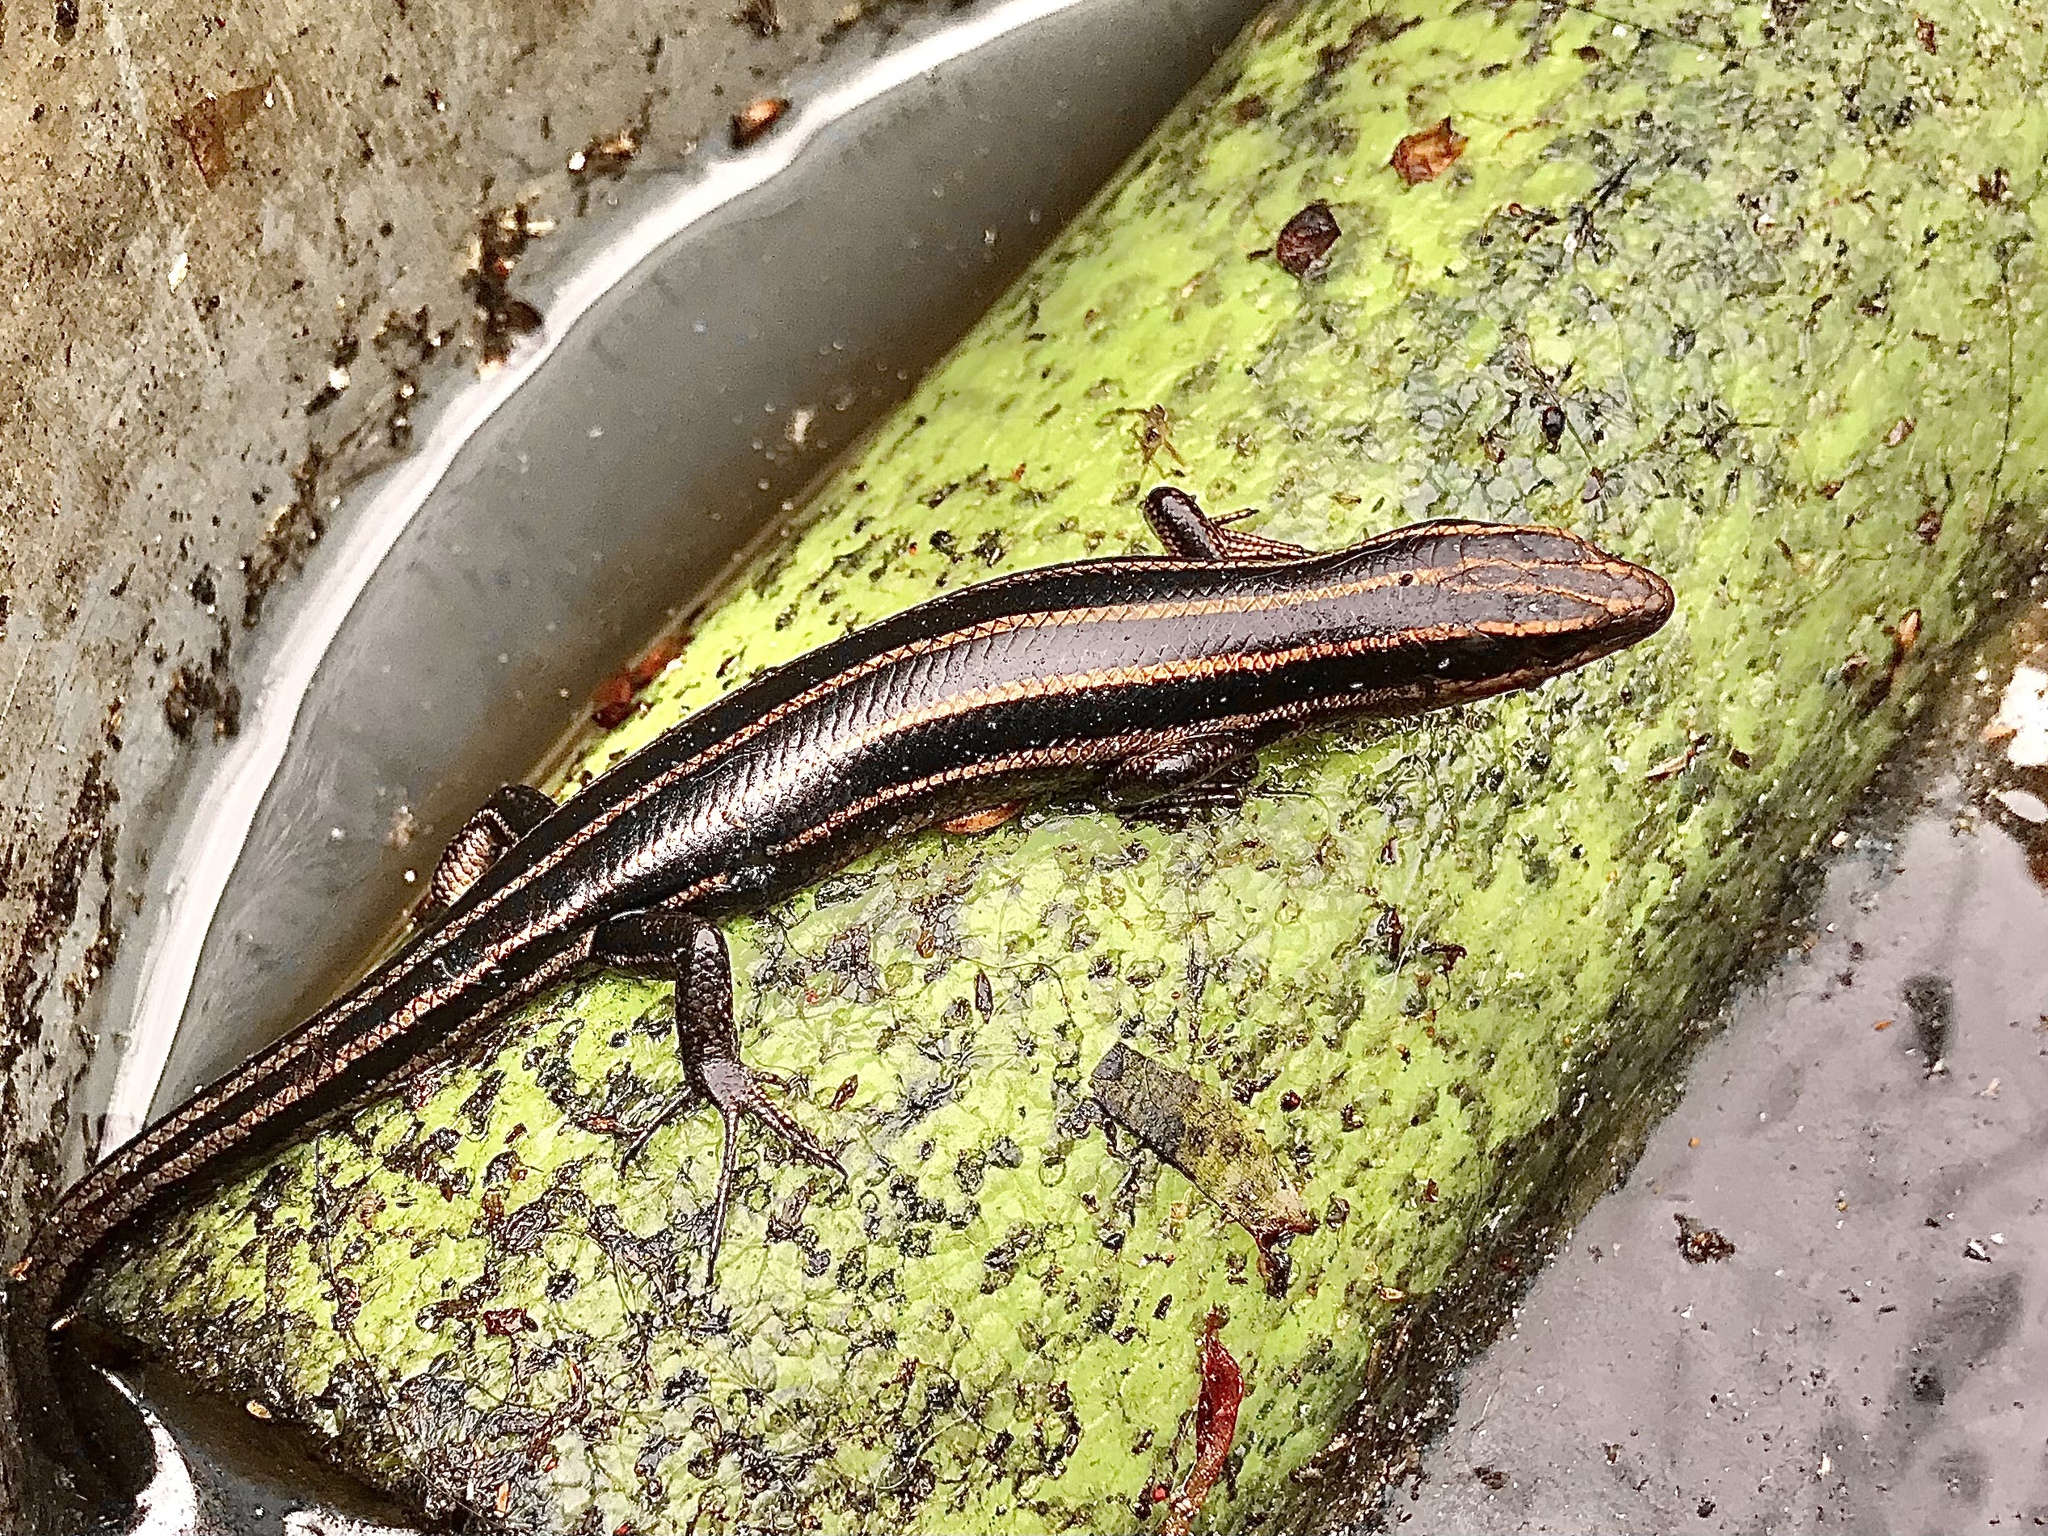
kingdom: Animalia
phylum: Chordata
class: Squamata
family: Scincidae
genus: Plestiodon
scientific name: Plestiodon fasciatus
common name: Five-lined skink
